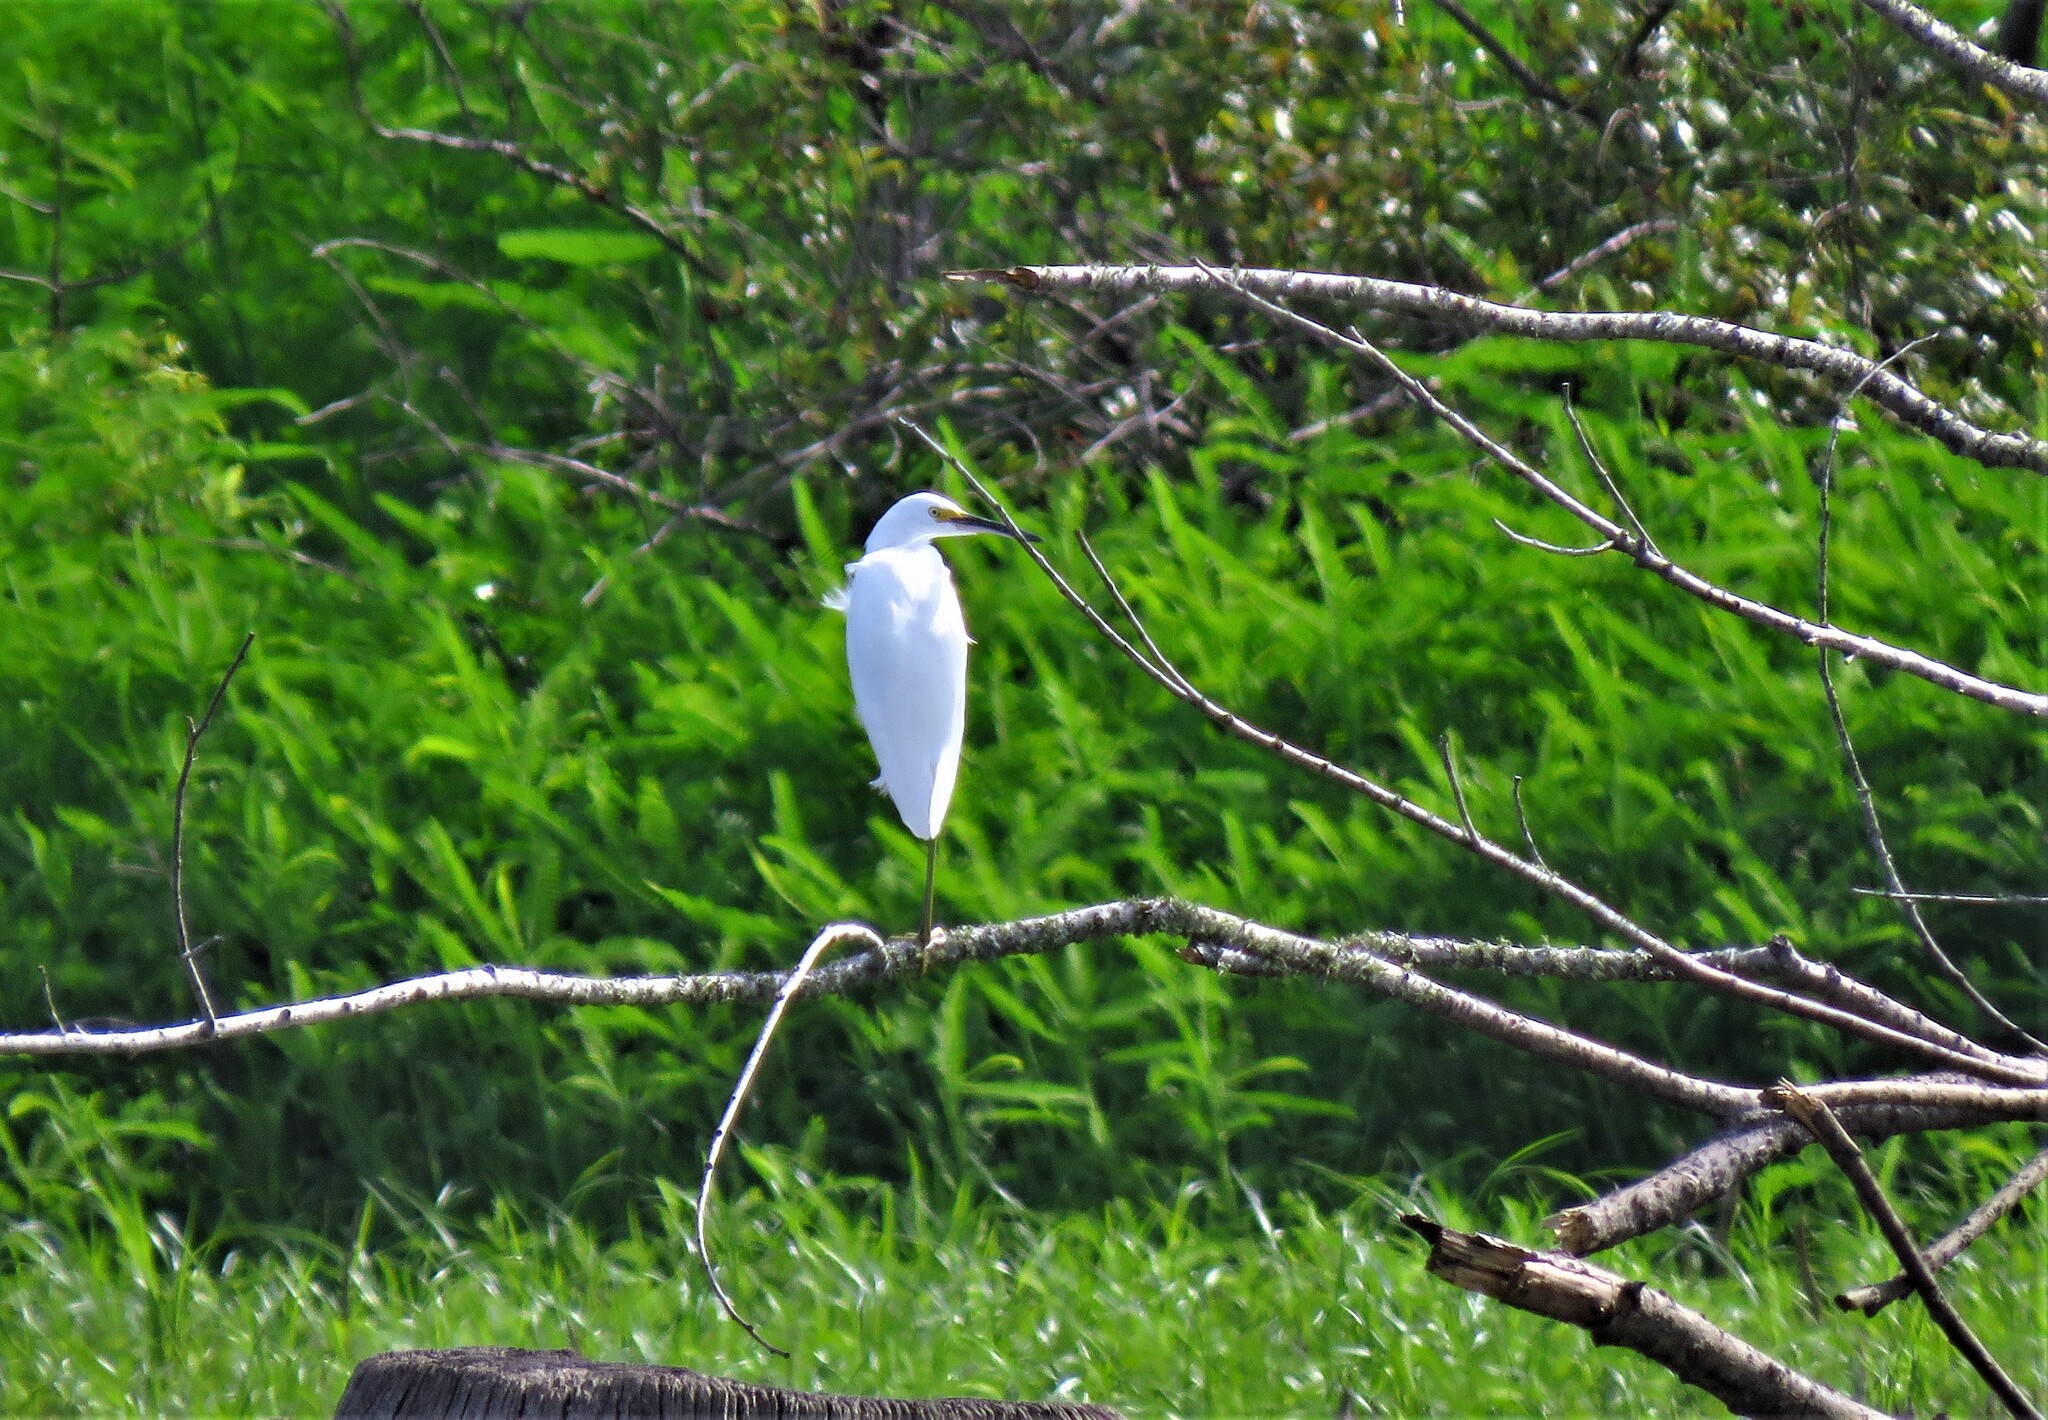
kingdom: Animalia
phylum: Chordata
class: Aves
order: Pelecaniformes
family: Ardeidae
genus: Egretta
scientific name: Egretta thula
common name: Snowy egret
